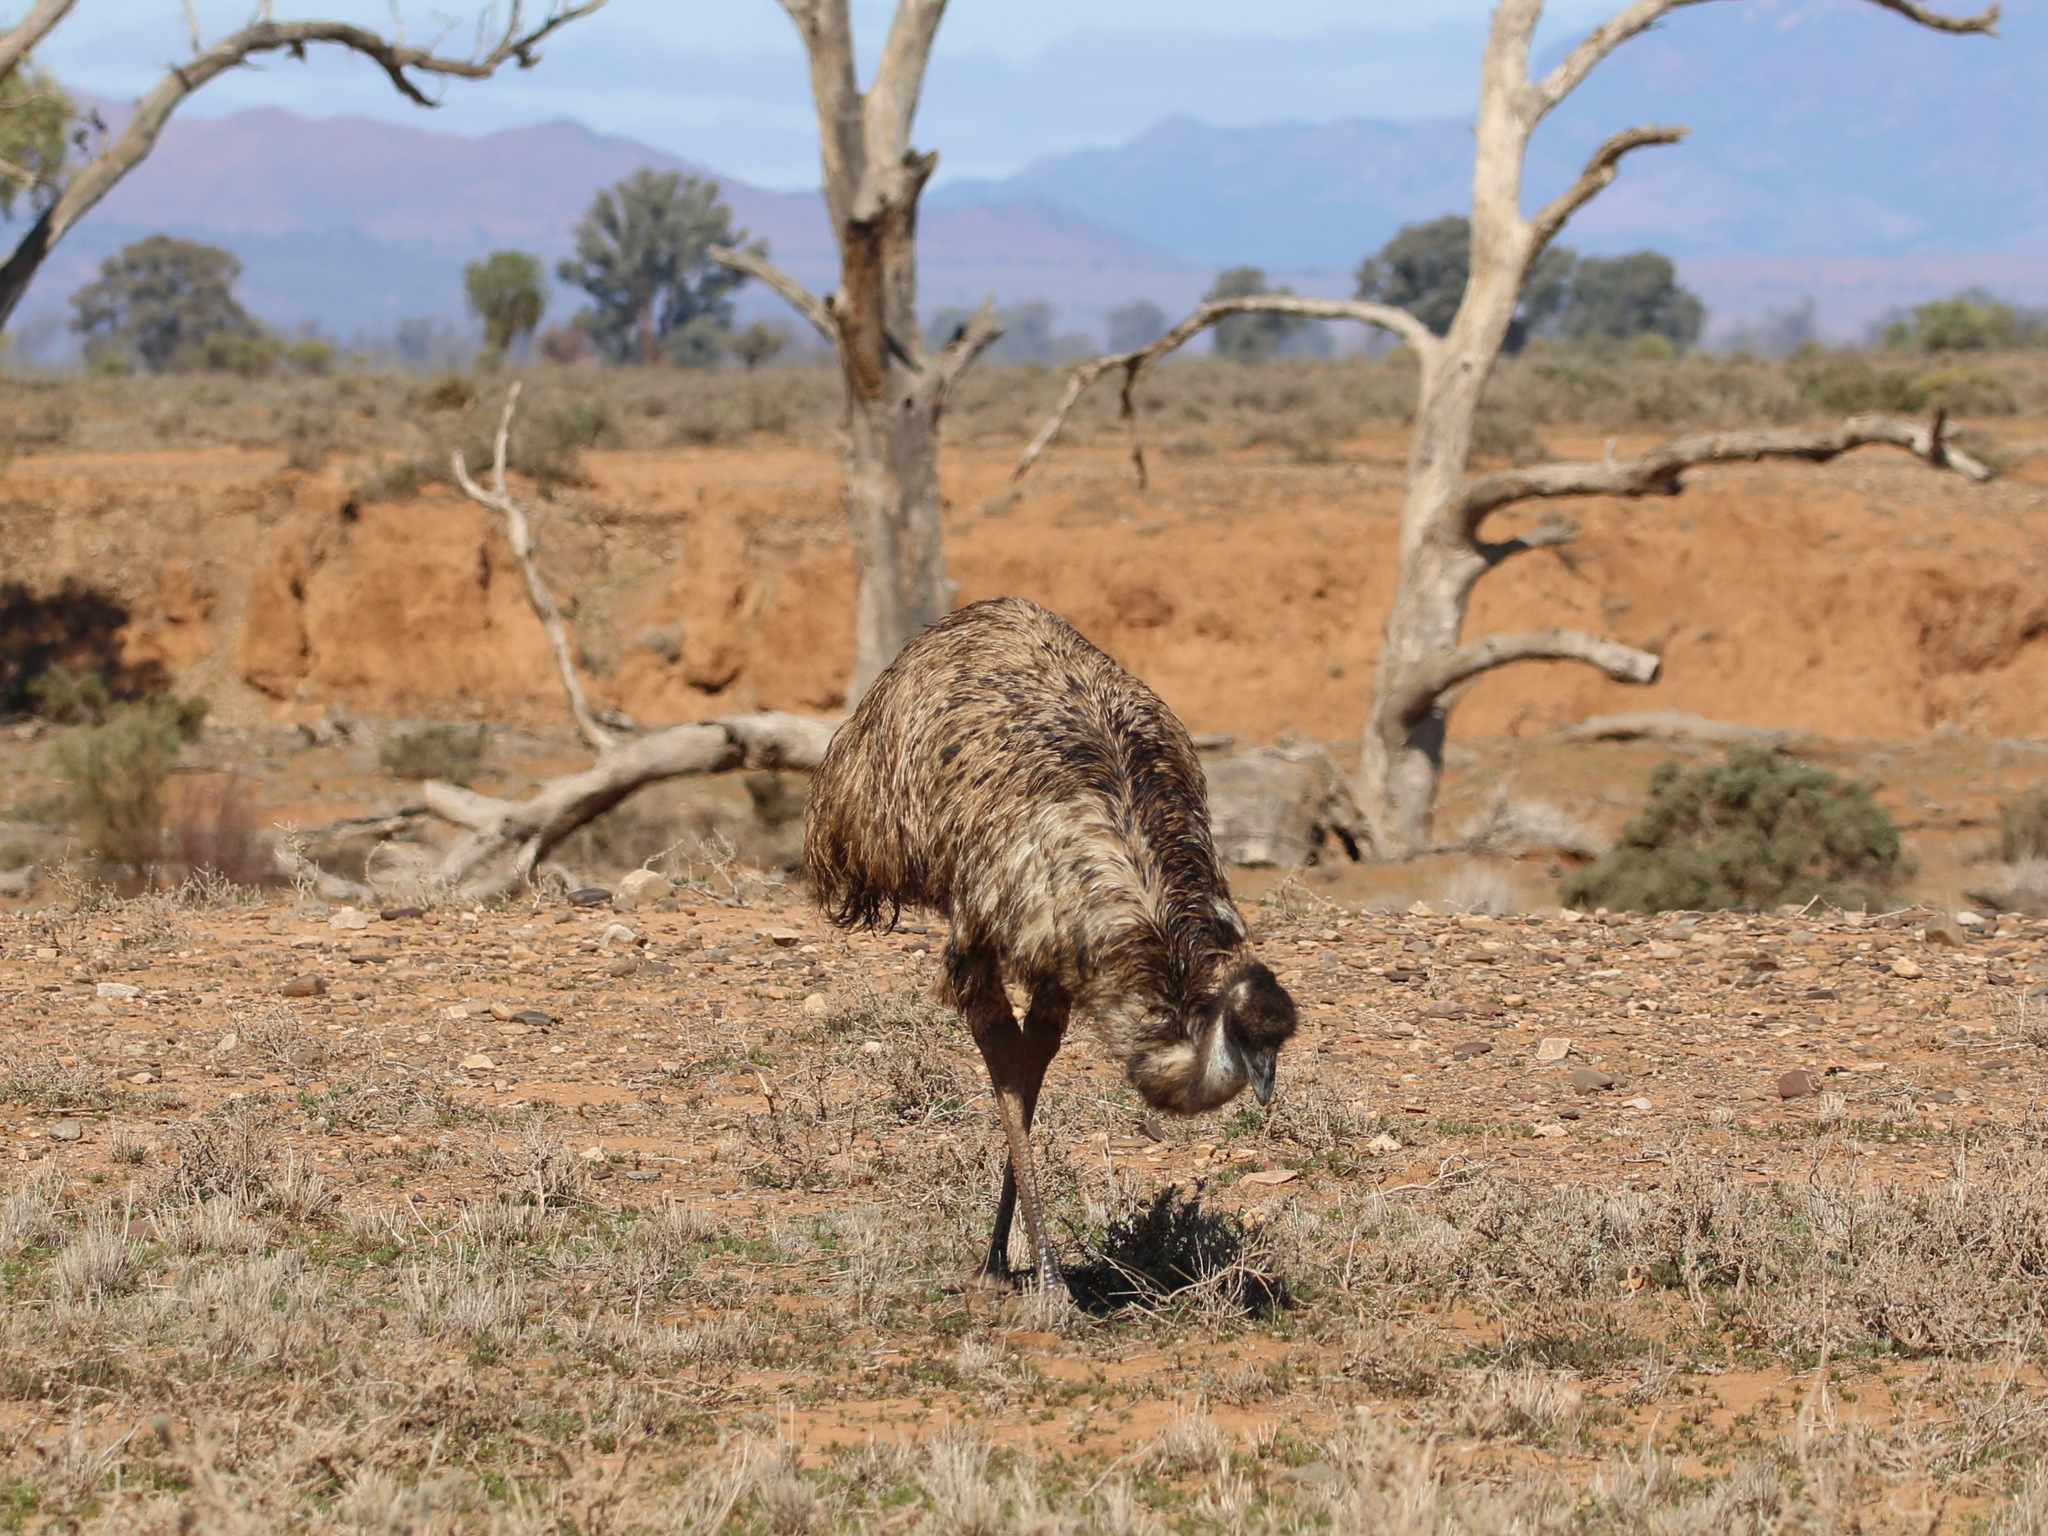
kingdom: Animalia
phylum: Chordata
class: Aves
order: Casuariiformes
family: Dromaiidae
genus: Dromaius
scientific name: Dromaius novaehollandiae
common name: Emu
